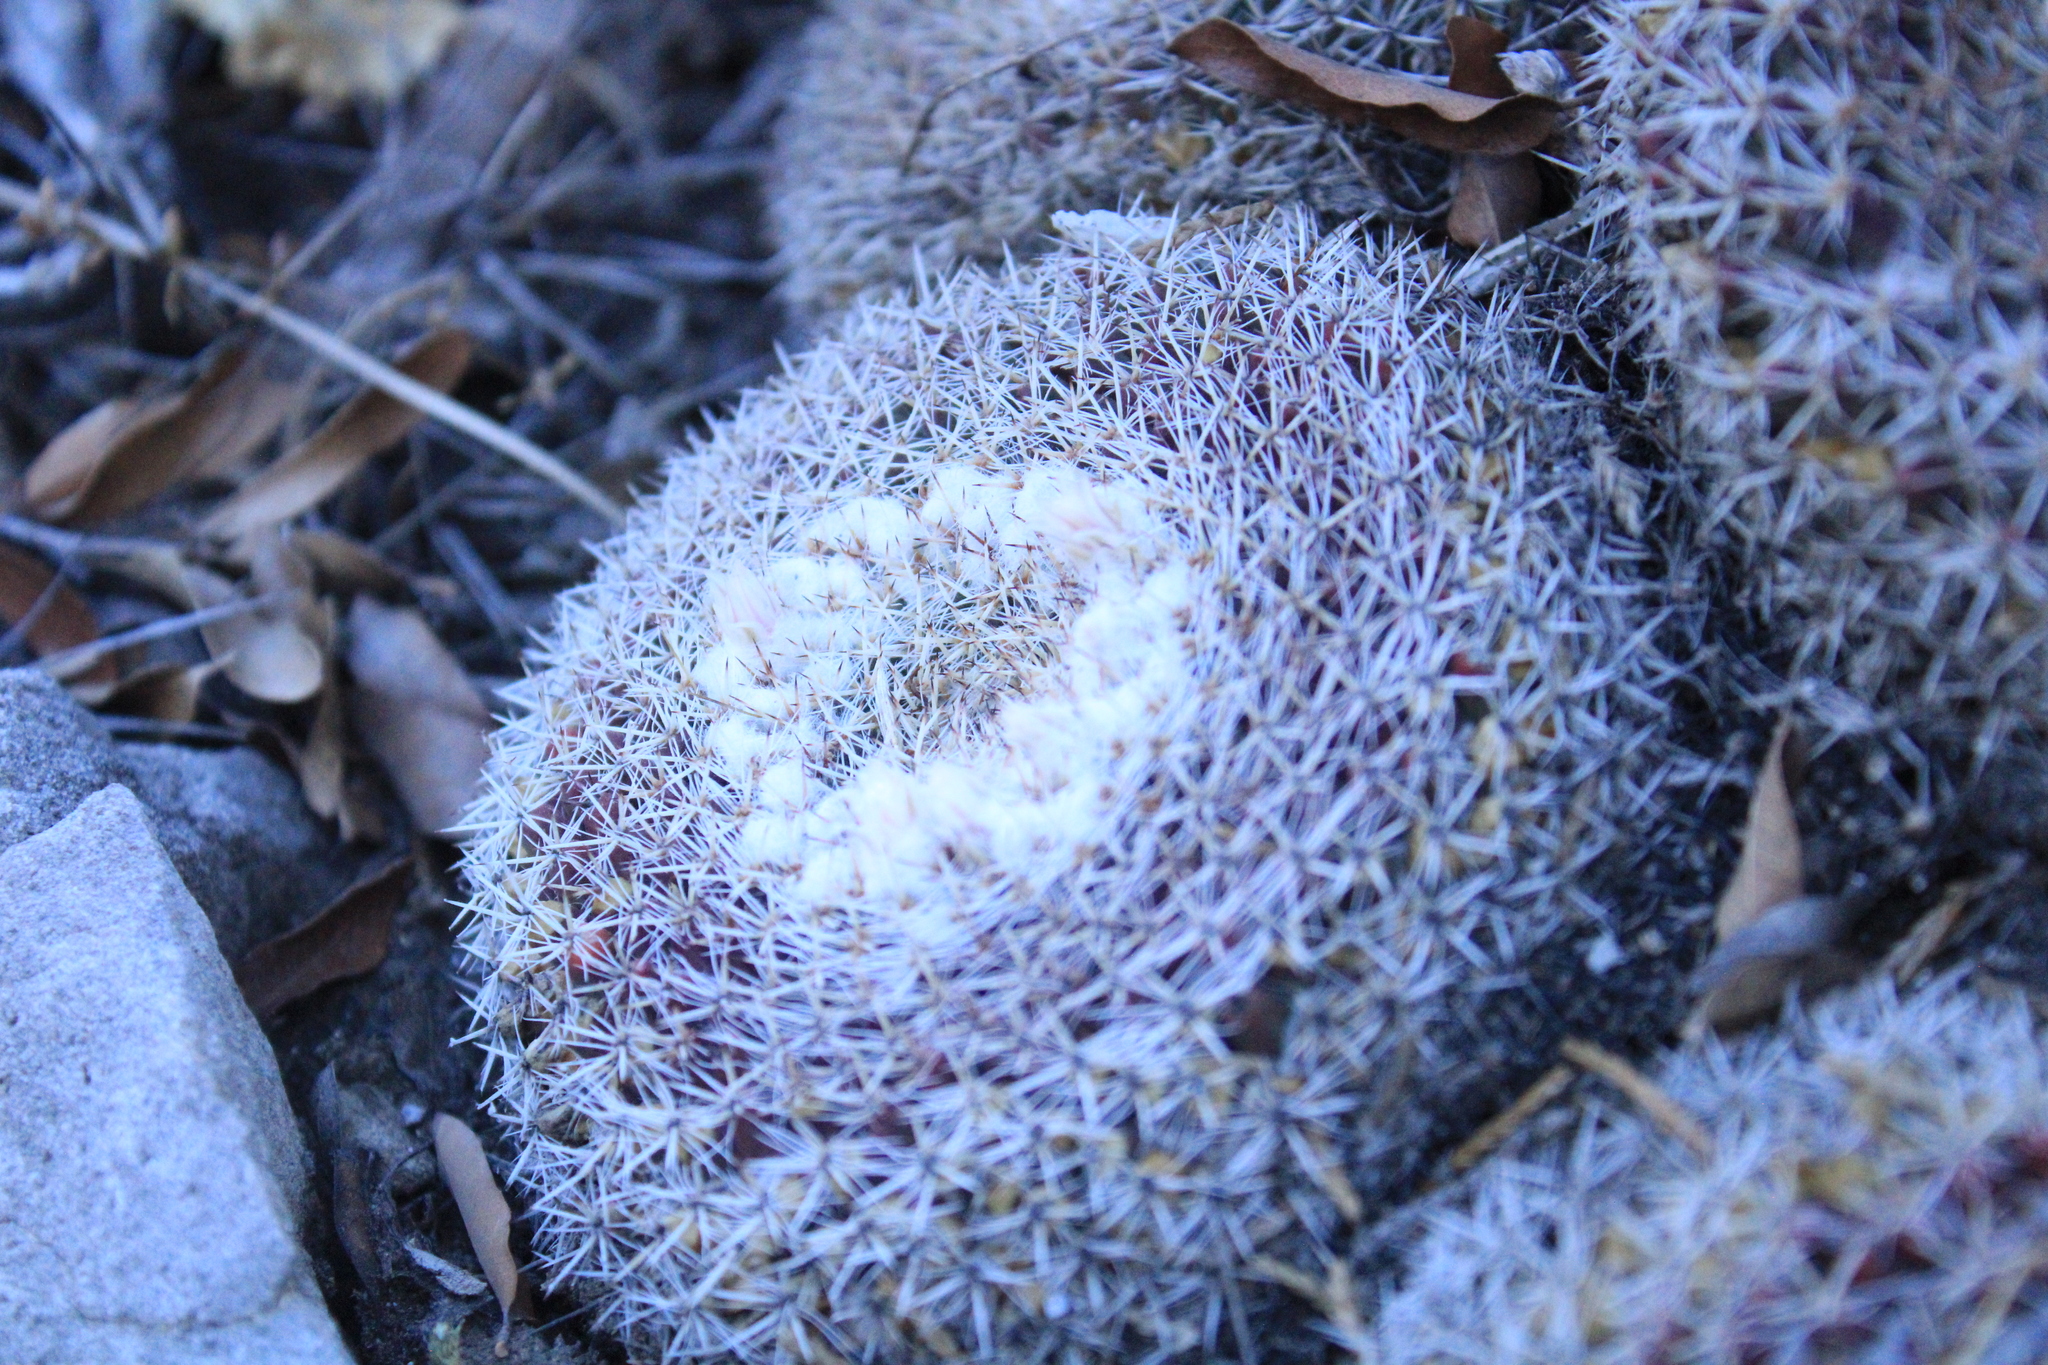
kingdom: Plantae
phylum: Tracheophyta
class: Magnoliopsida
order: Caryophyllales
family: Cactaceae
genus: Mammillaria
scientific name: Mammillaria formosa
